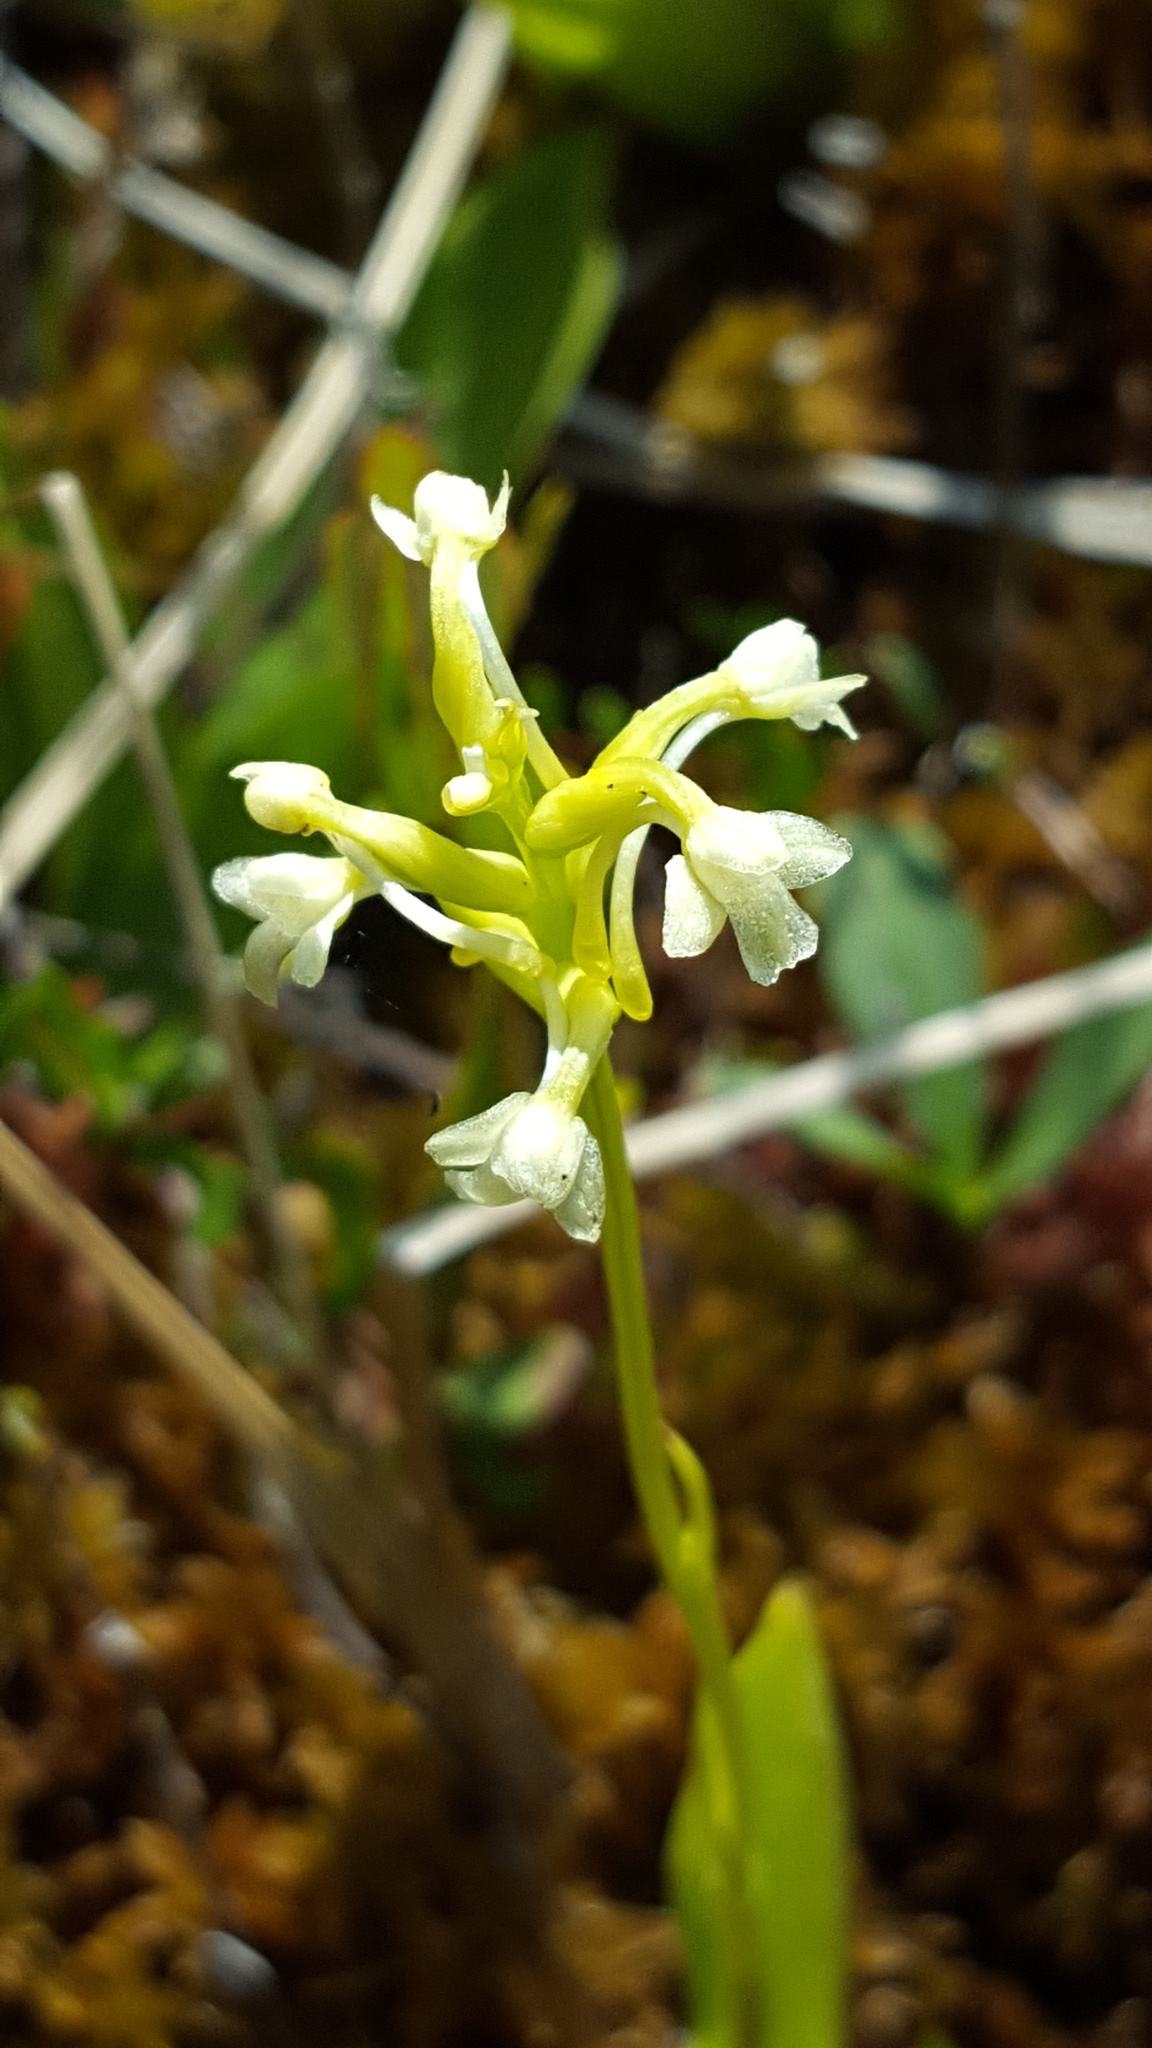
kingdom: Plantae
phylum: Tracheophyta
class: Liliopsida
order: Asparagales
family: Orchidaceae
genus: Platanthera
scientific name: Platanthera clavellata
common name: Club-spur orchid
